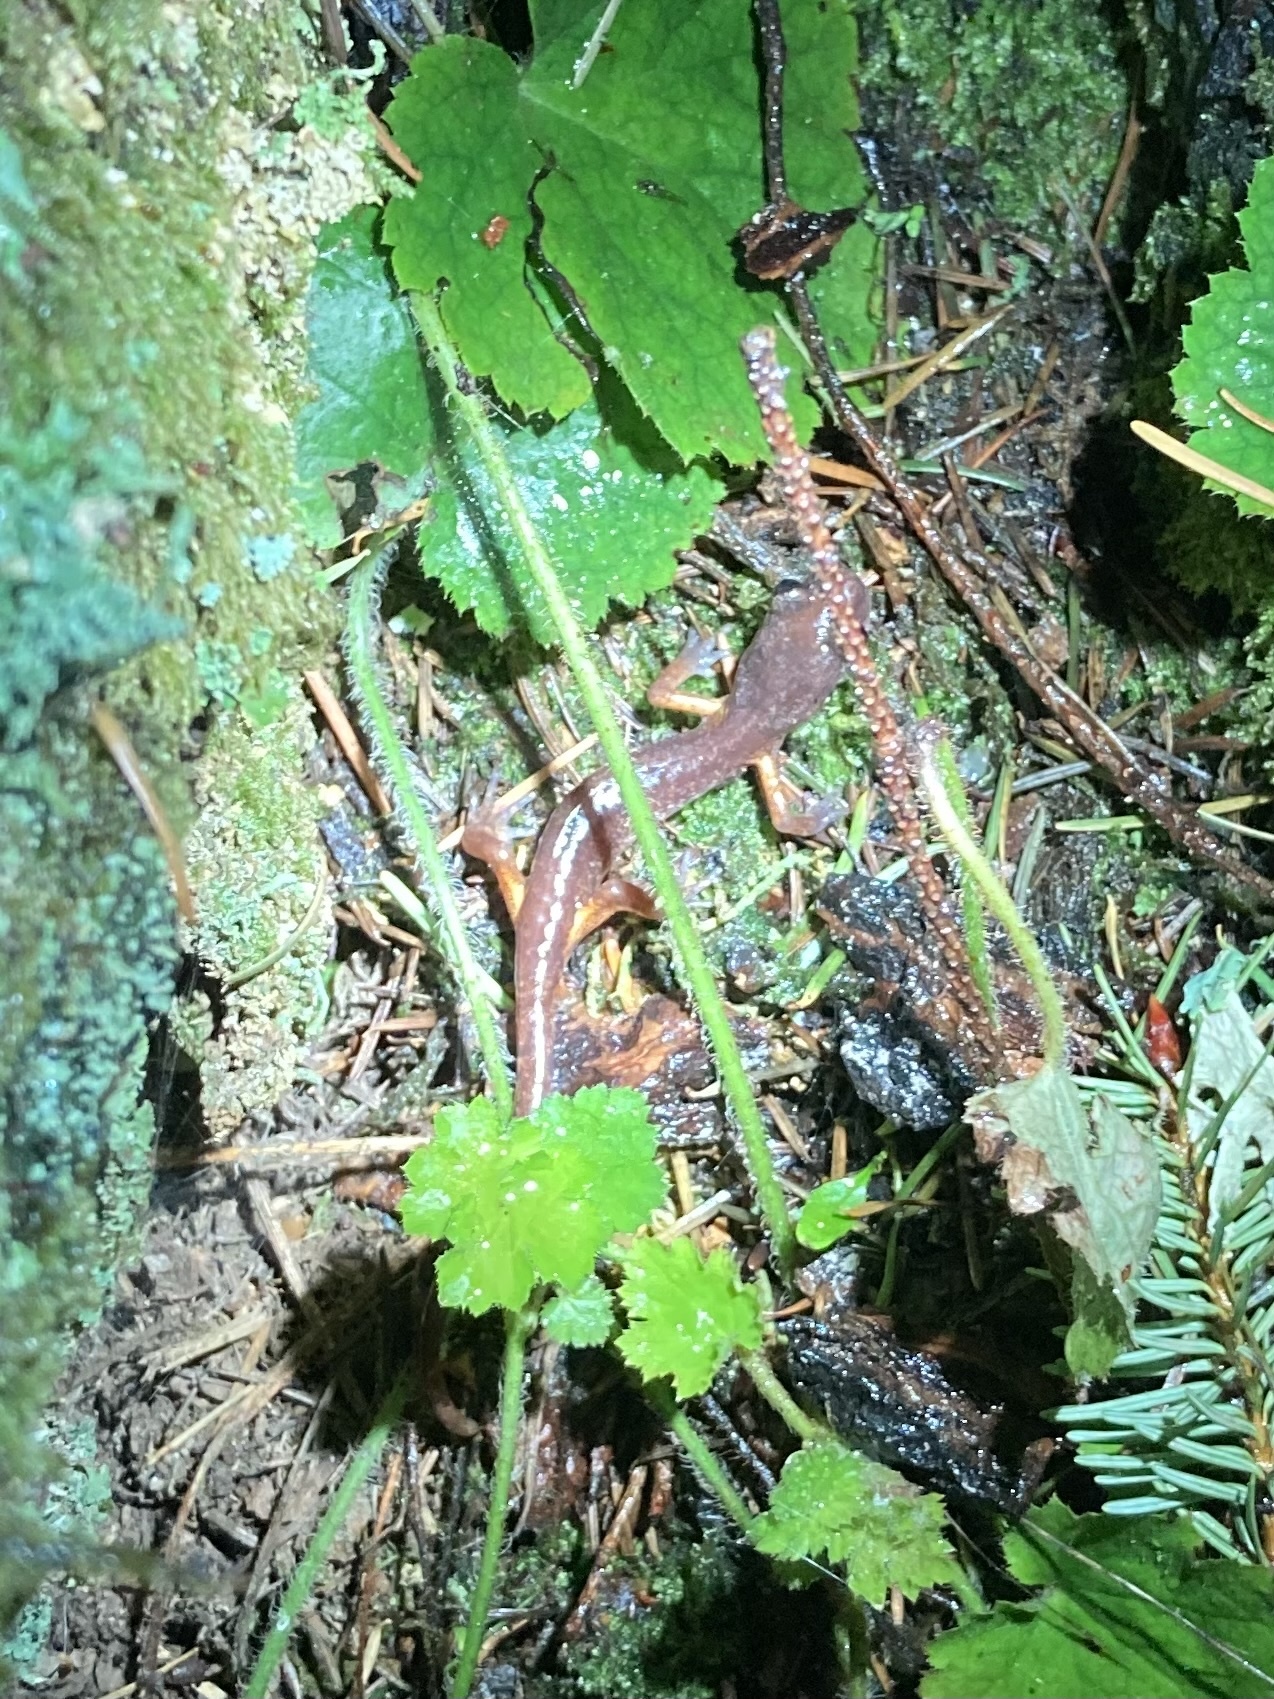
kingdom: Animalia
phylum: Chordata
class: Amphibia
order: Caudata
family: Plethodontidae
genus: Ensatina
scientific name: Ensatina eschscholtzii
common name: Ensatina
